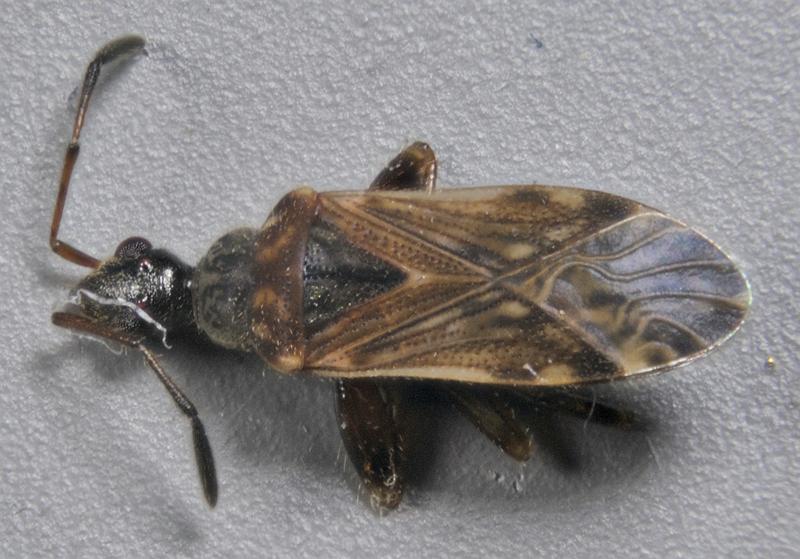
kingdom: Animalia
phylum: Arthropoda
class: Insecta
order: Hemiptera
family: Rhyparochromidae
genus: Heraeus
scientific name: Heraeus plebejus
